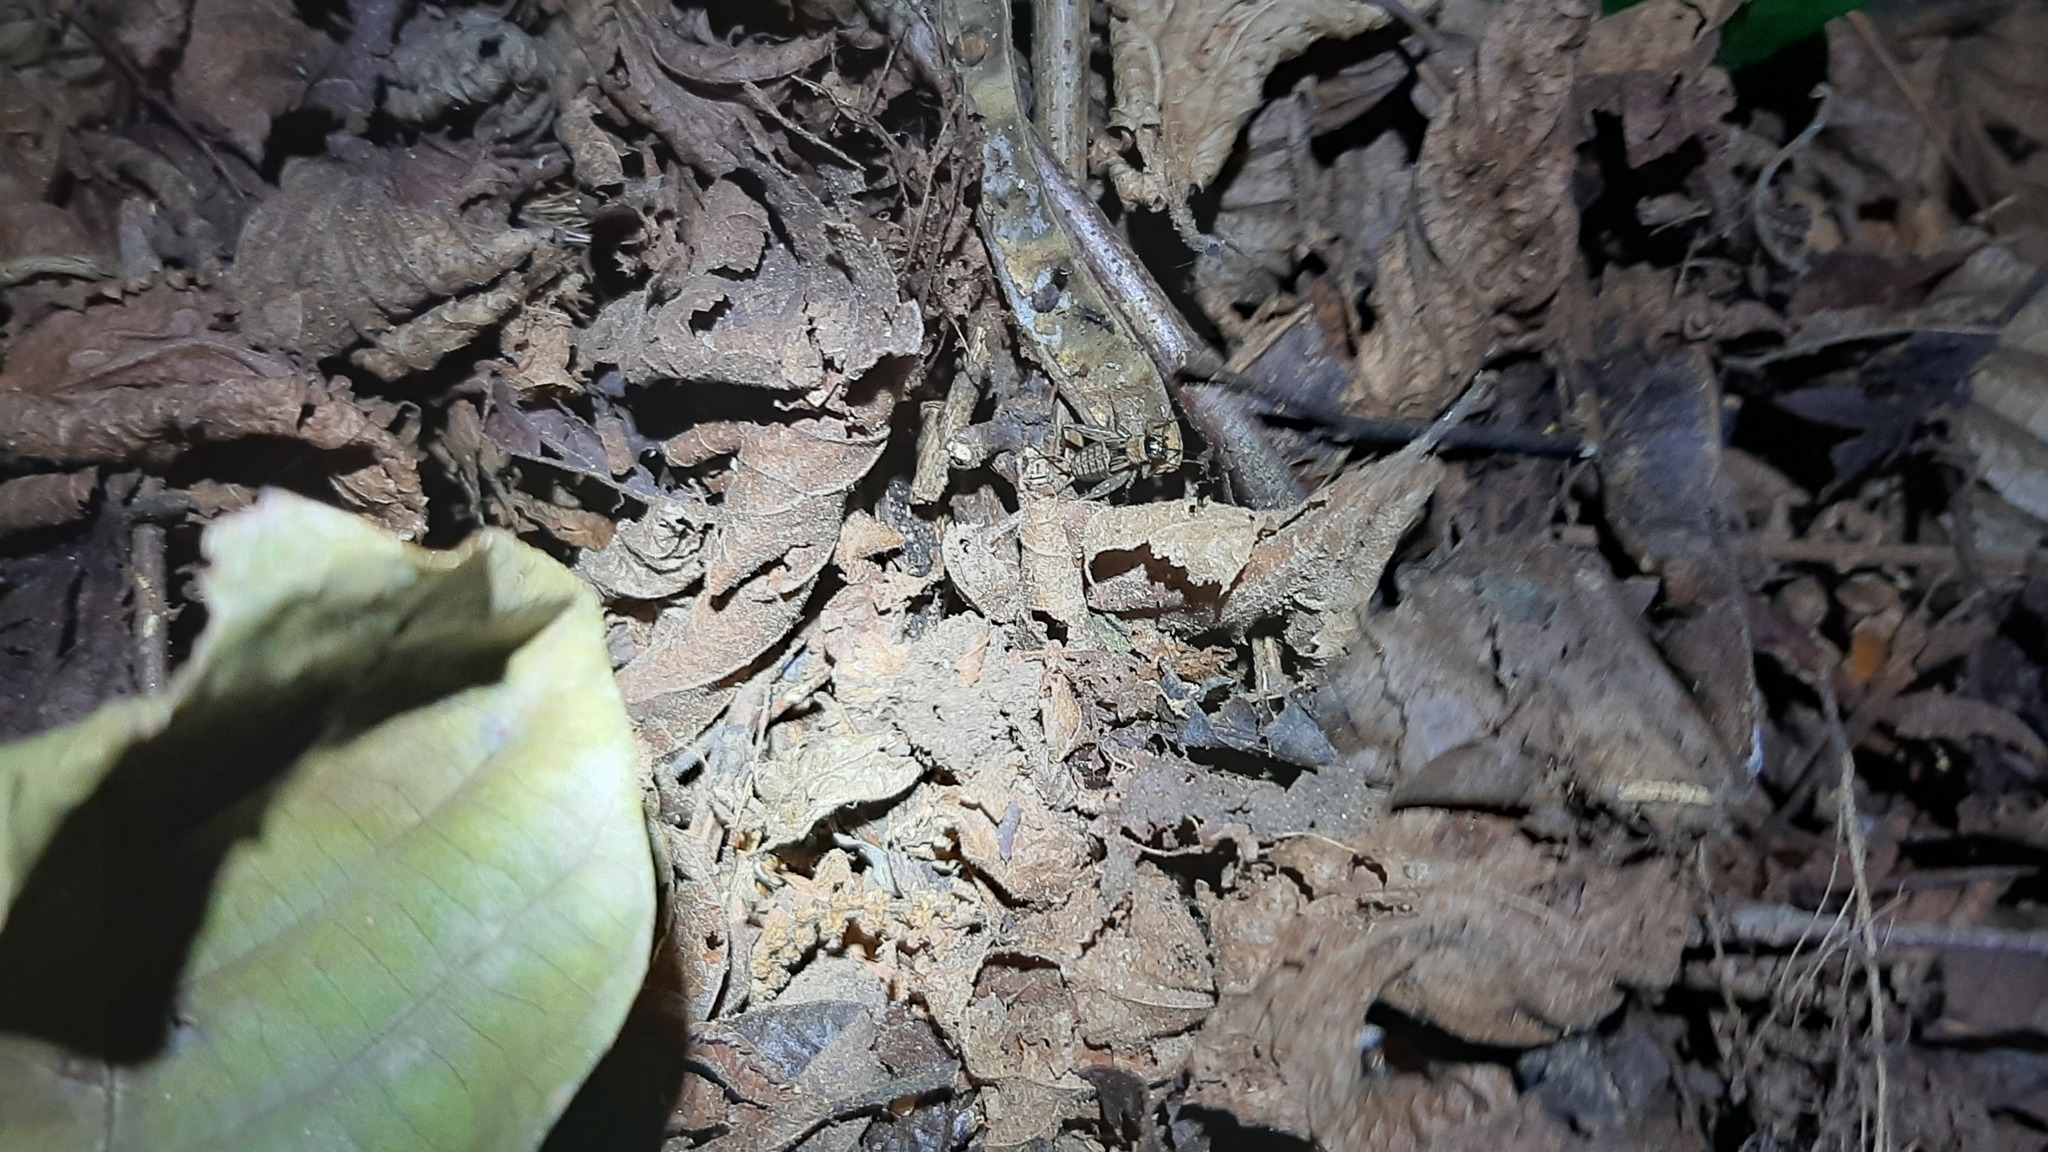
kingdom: Animalia
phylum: Arthropoda
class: Insecta
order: Orthoptera
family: Trigonidiidae
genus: Nemobius
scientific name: Nemobius sylvestris
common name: Wood-cricket
